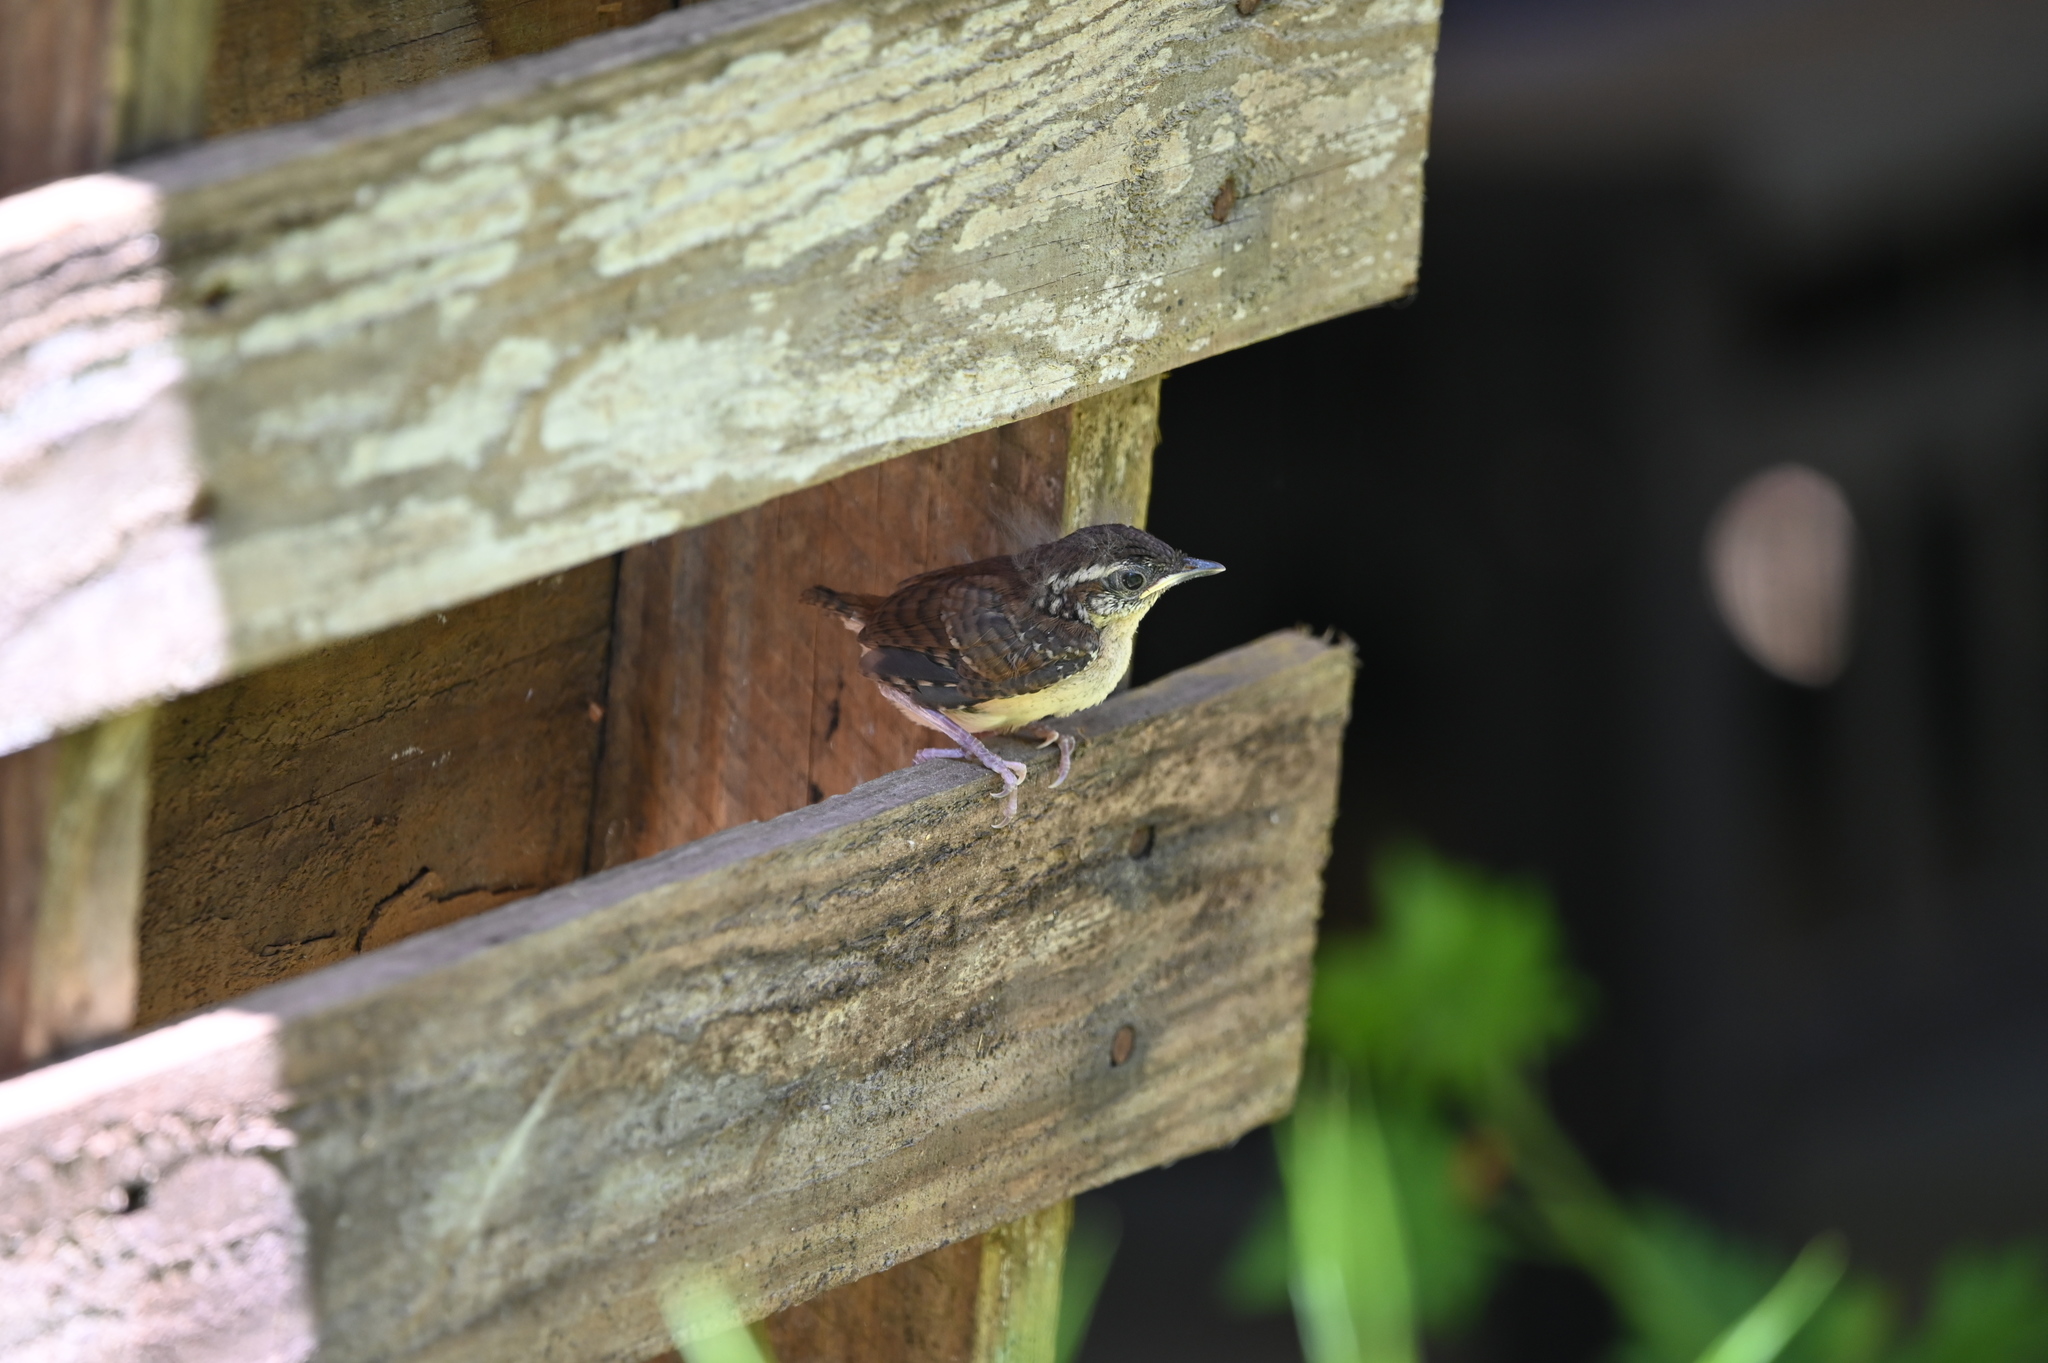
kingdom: Animalia
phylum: Chordata
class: Aves
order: Passeriformes
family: Troglodytidae
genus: Thryothorus
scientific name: Thryothorus ludovicianus
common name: Carolina wren
